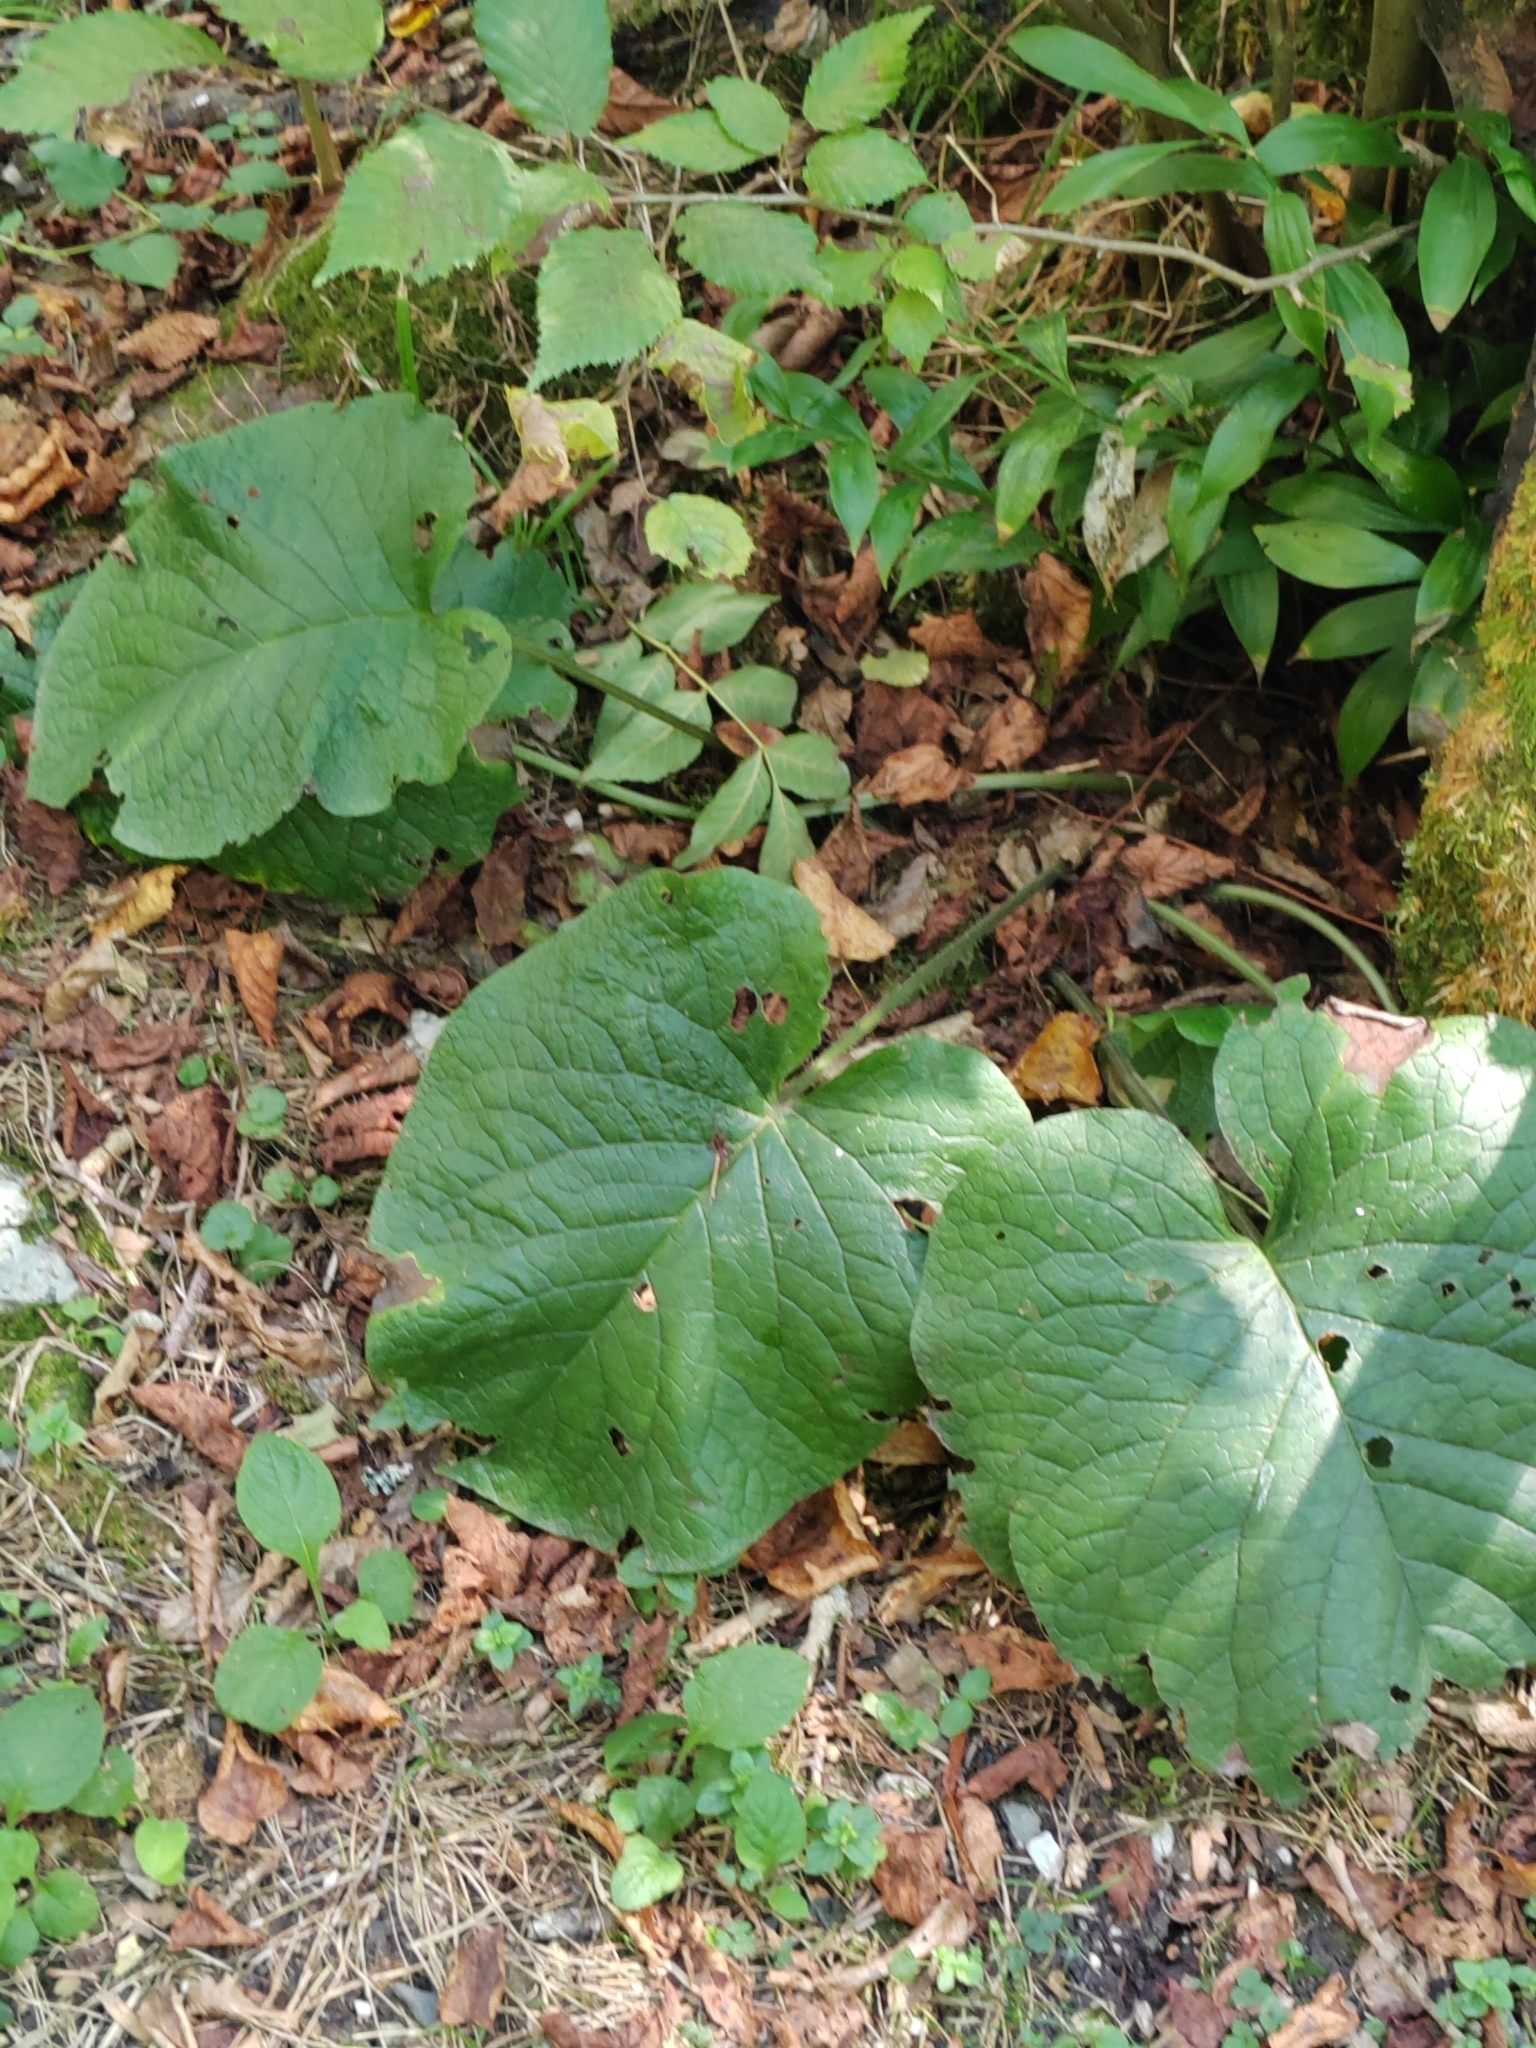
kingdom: Plantae
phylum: Tracheophyta
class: Magnoliopsida
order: Boraginales
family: Boraginaceae
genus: Trachystemon
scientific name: Trachystemon orientale
